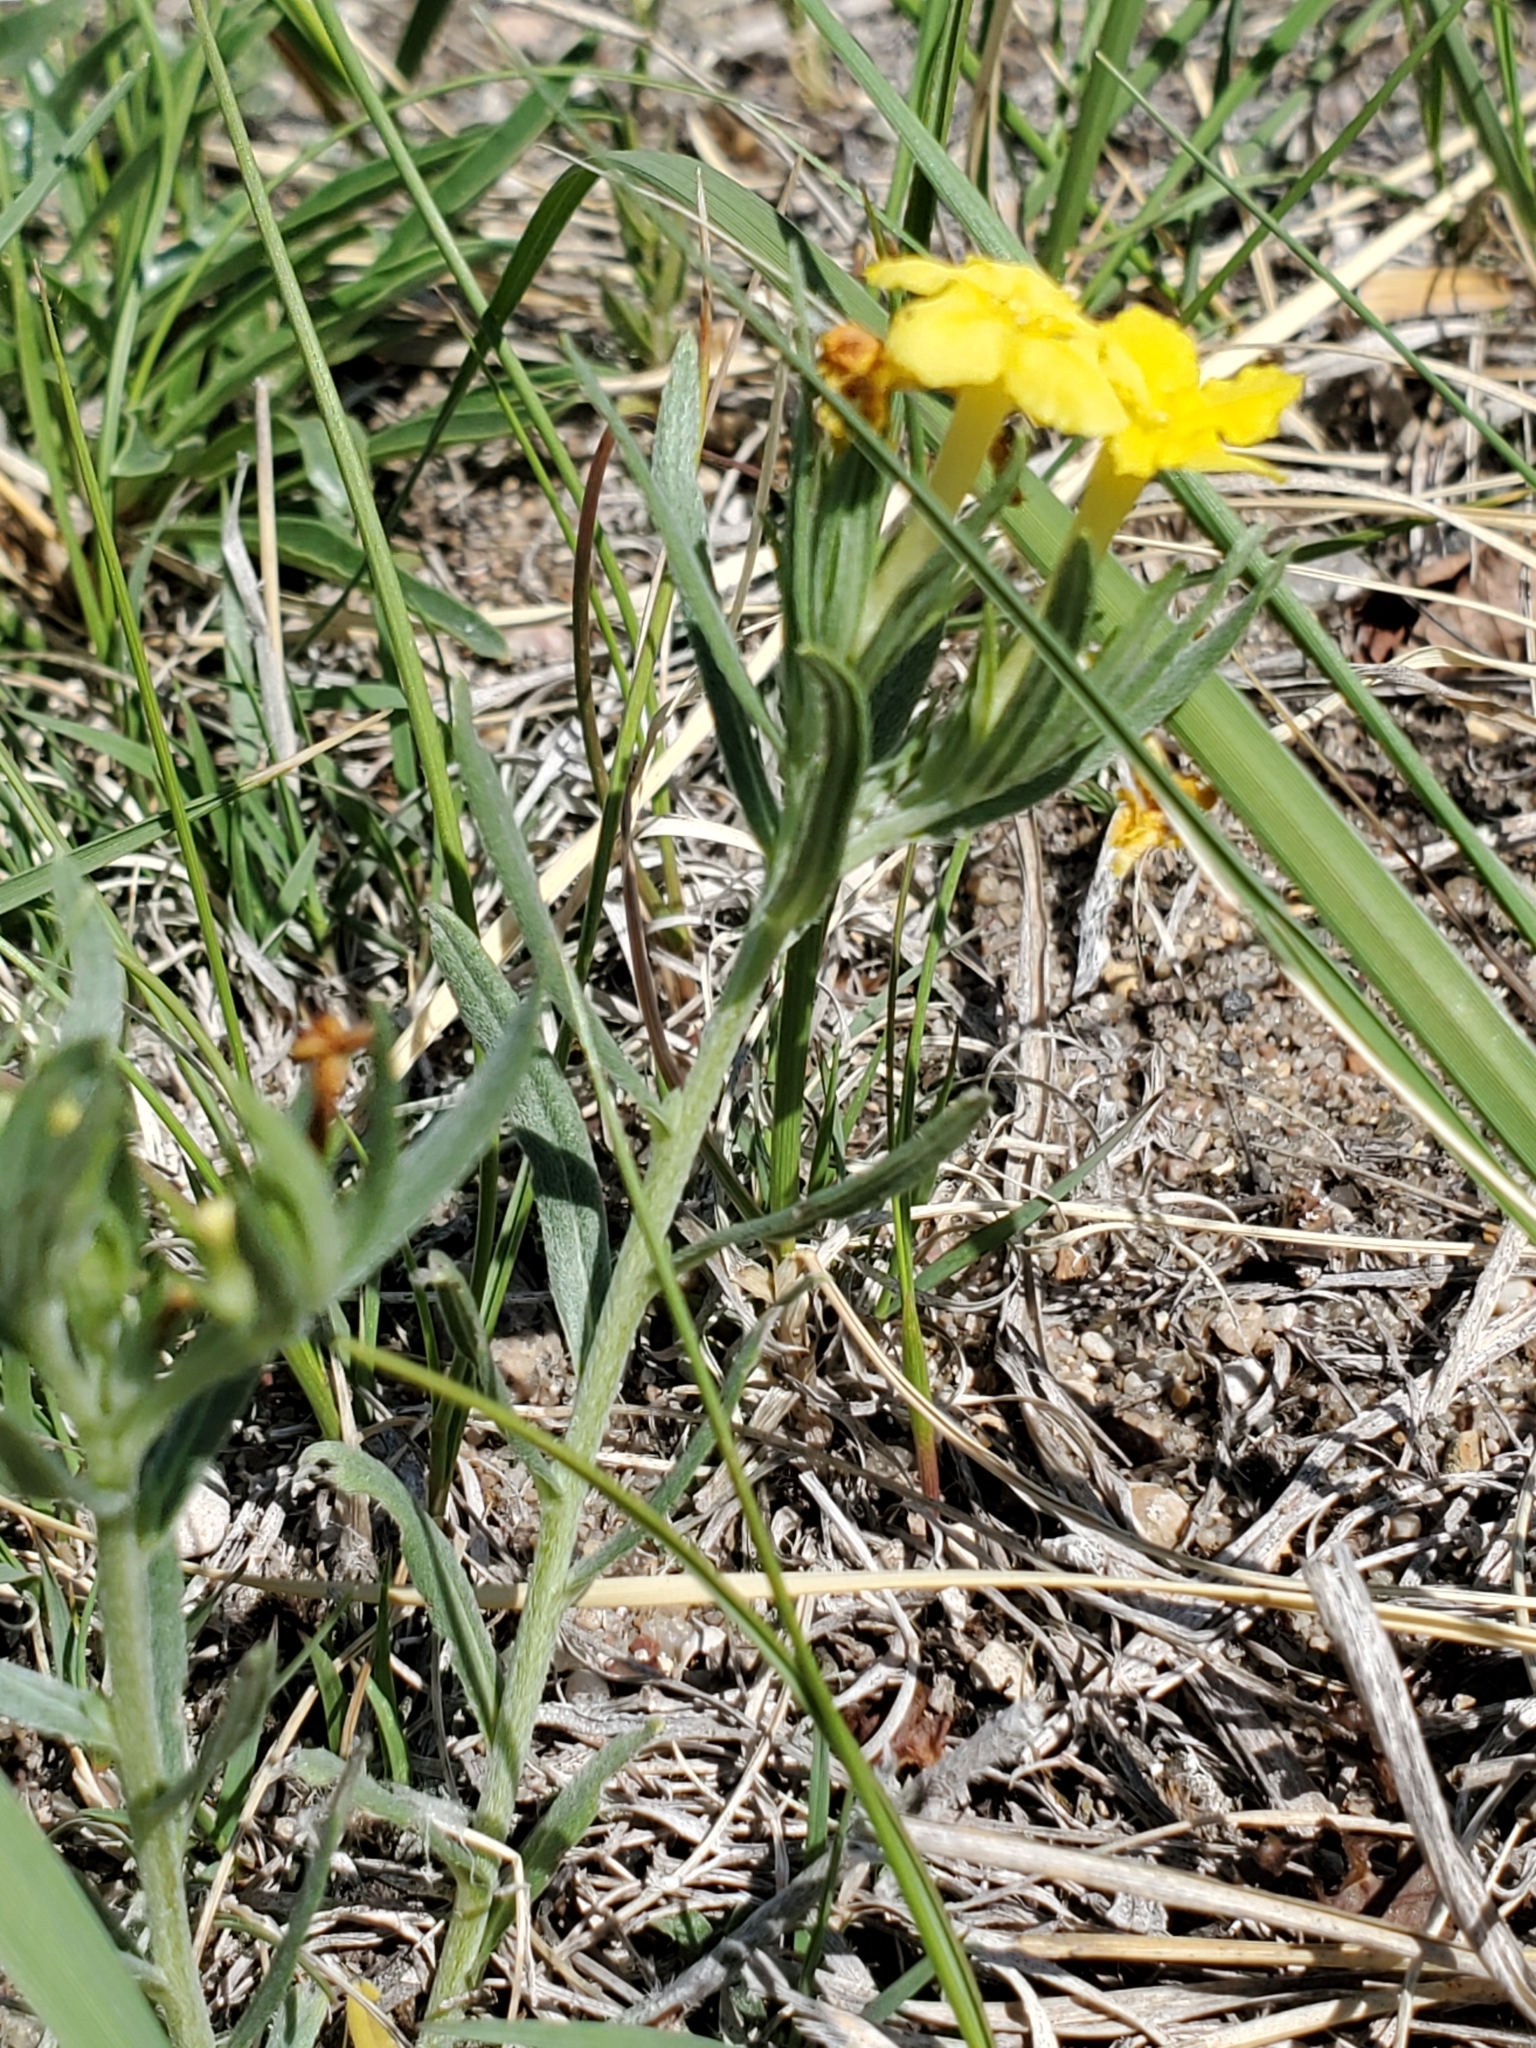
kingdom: Plantae
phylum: Tracheophyta
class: Magnoliopsida
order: Boraginales
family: Boraginaceae
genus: Lithospermum
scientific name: Lithospermum incisum
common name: Fringed gromwell
